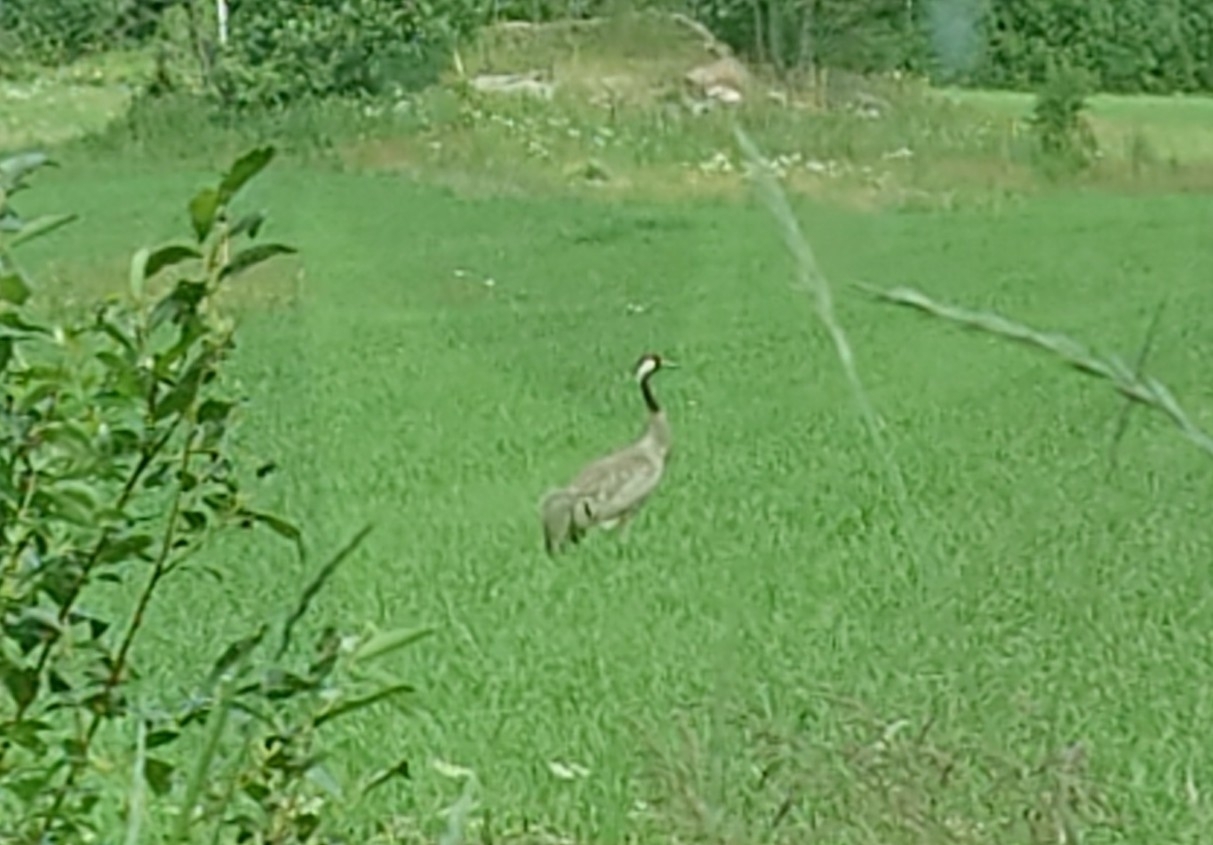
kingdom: Animalia
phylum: Chordata
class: Aves
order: Gruiformes
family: Gruidae
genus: Grus
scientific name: Grus grus
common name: Common crane
